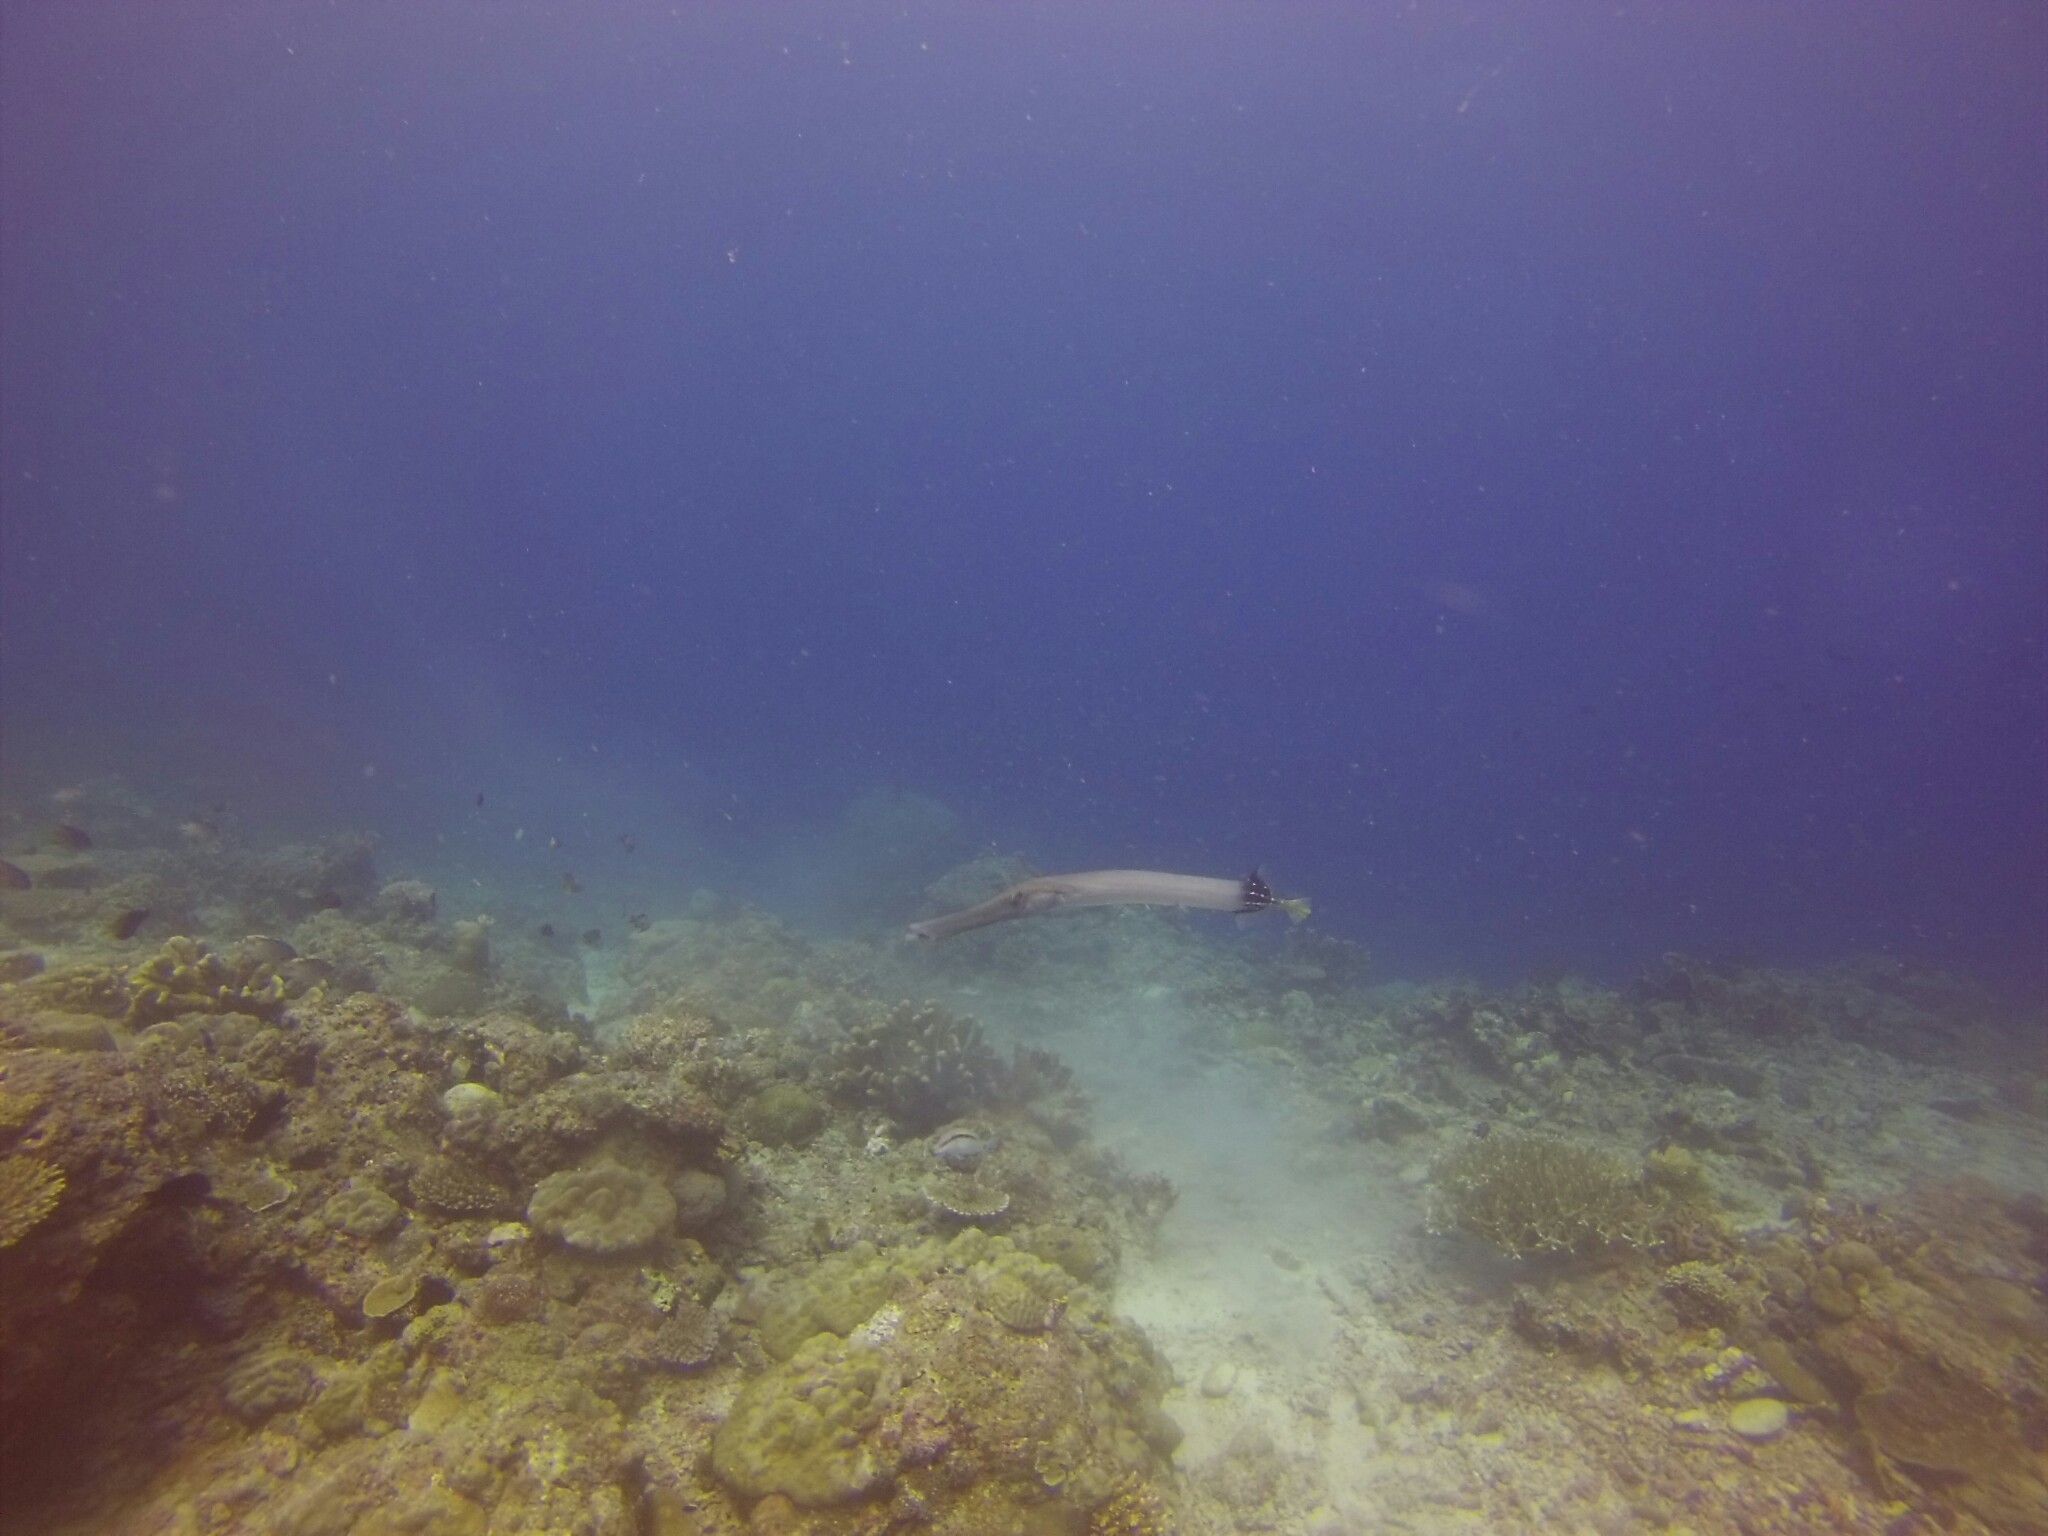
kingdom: Animalia
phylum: Chordata
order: Syngnathiformes
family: Aulostomidae
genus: Aulostomus
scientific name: Aulostomus chinensis
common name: Chinese trumpetfish
